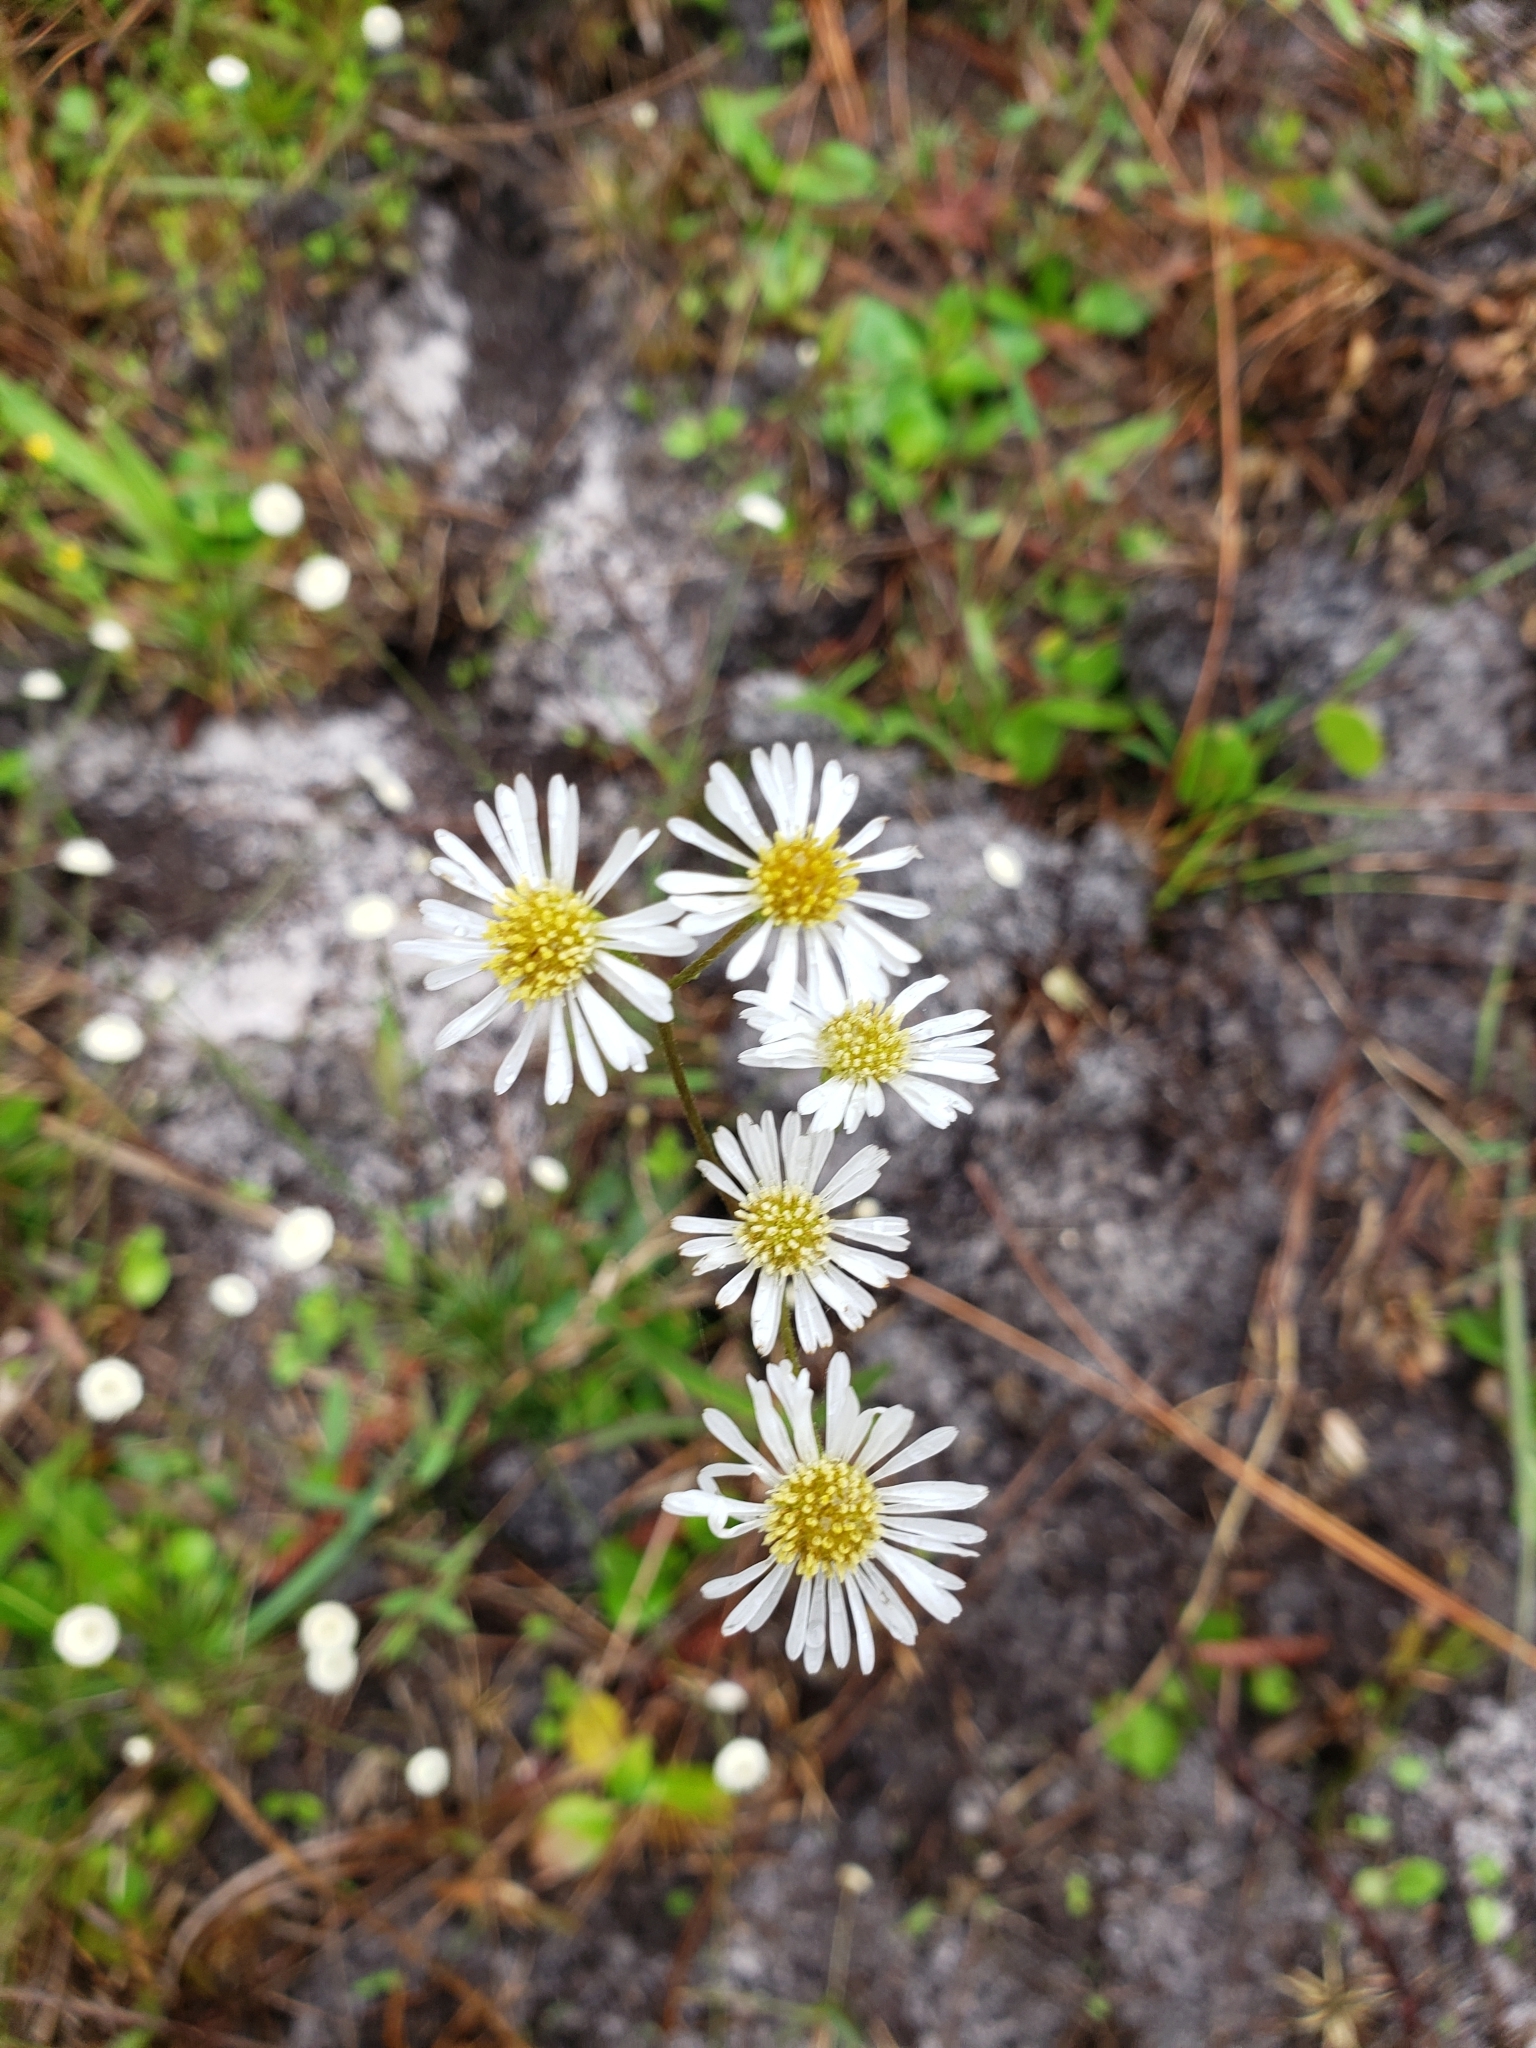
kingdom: Plantae
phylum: Tracheophyta
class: Magnoliopsida
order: Asterales
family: Asteraceae
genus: Erigeron
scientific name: Erigeron vernus
